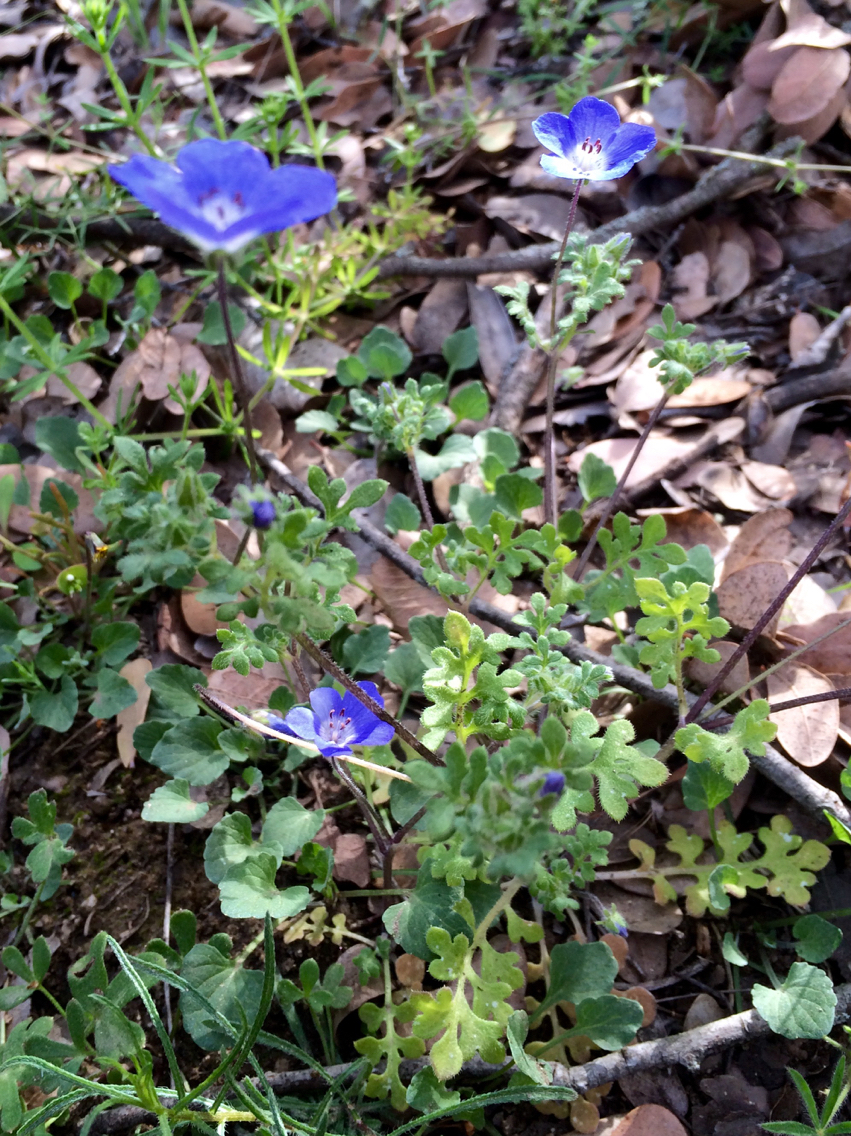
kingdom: Plantae
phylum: Tracheophyta
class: Magnoliopsida
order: Boraginales
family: Hydrophyllaceae
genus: Nemophila
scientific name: Nemophila menziesii
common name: Baby's-blue-eyes
